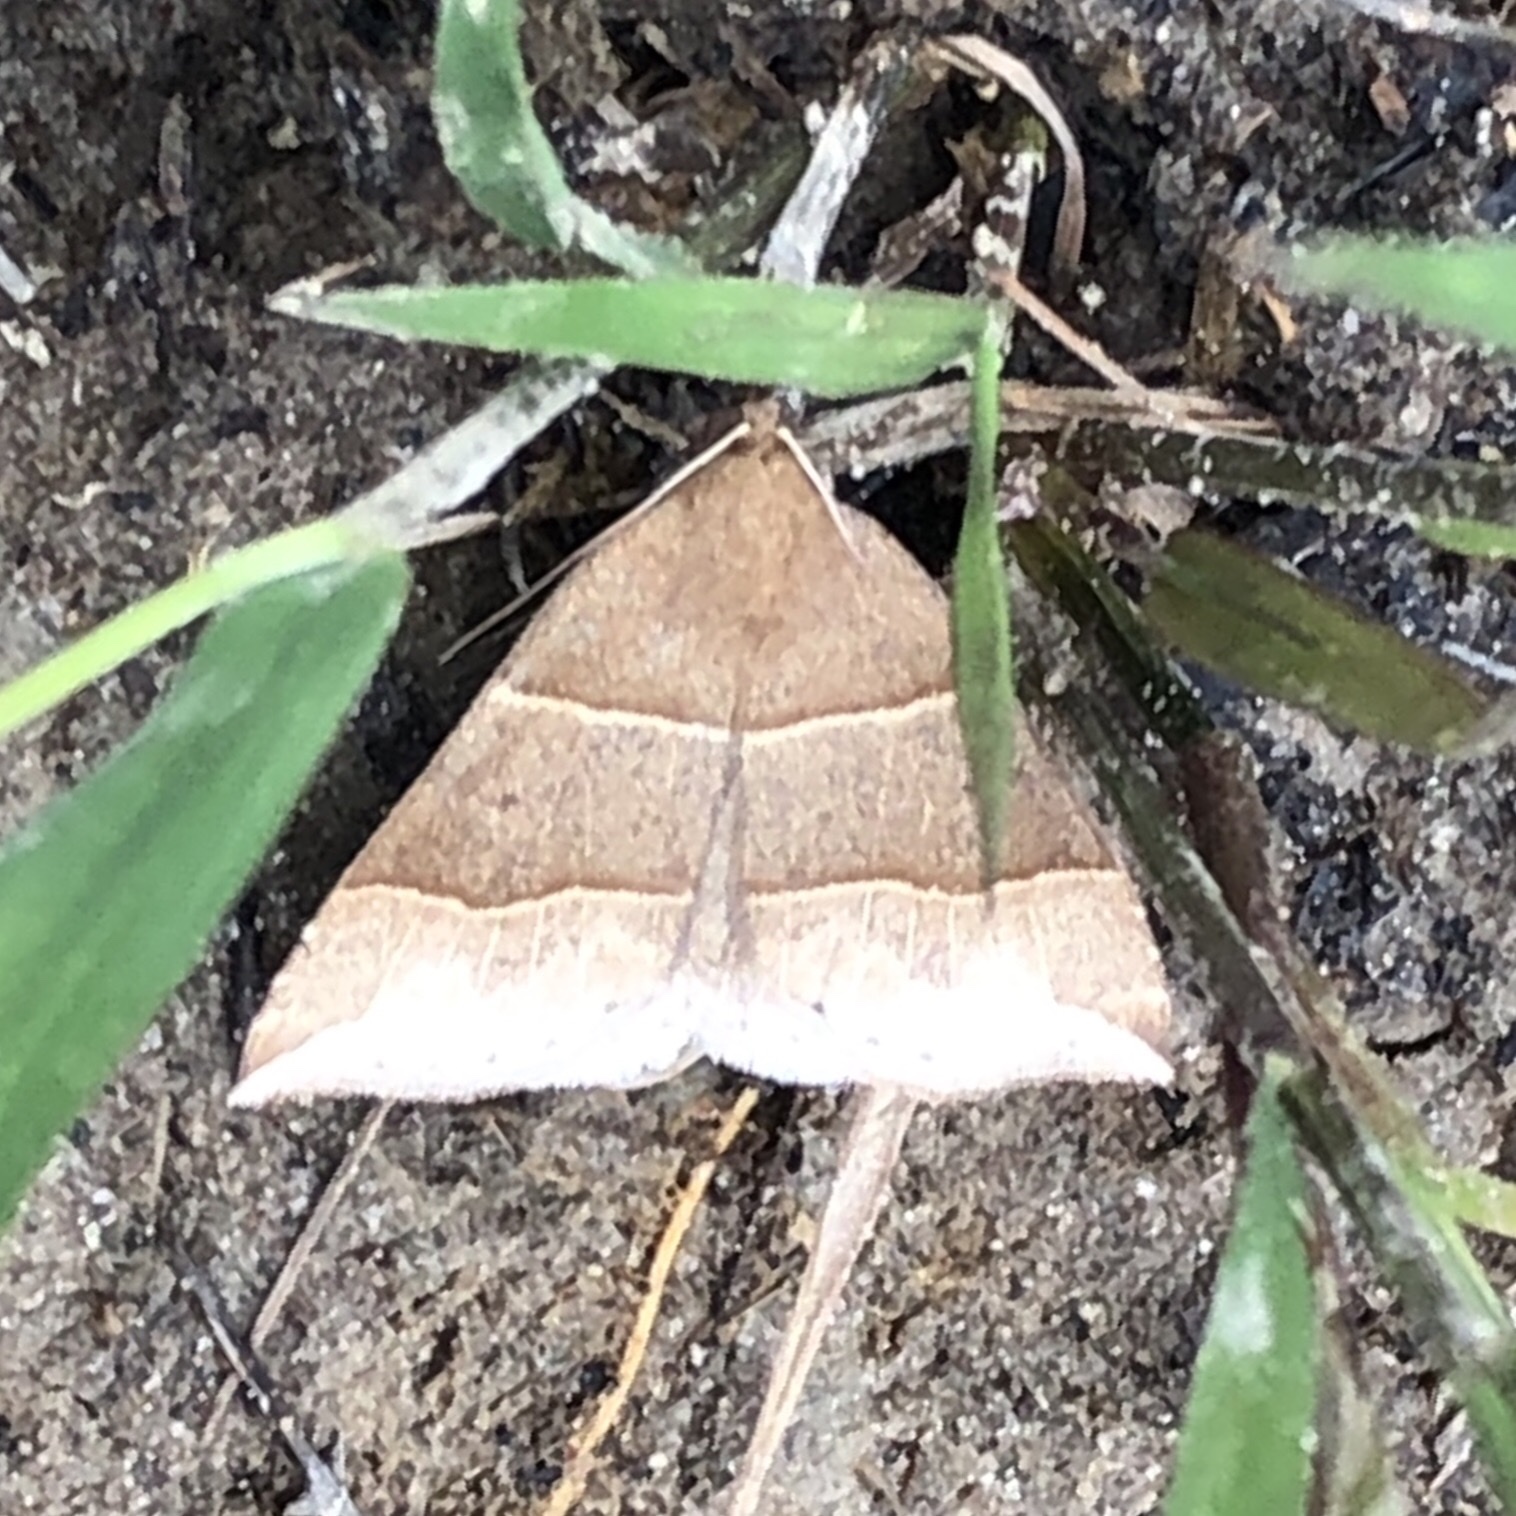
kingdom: Animalia
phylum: Arthropoda
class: Insecta
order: Lepidoptera
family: Erebidae
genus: Parallelia
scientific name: Parallelia bistriaris
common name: Maple looper moth
